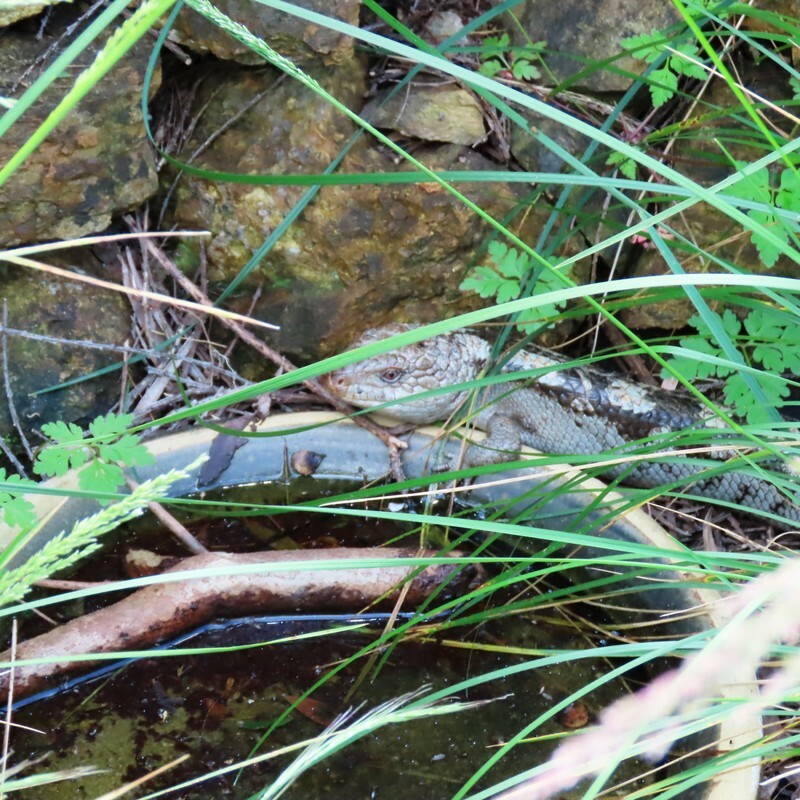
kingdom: Animalia
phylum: Chordata
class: Squamata
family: Scincidae
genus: Tiliqua
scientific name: Tiliqua nigrolutea
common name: Blotched blue-tongued lizard
